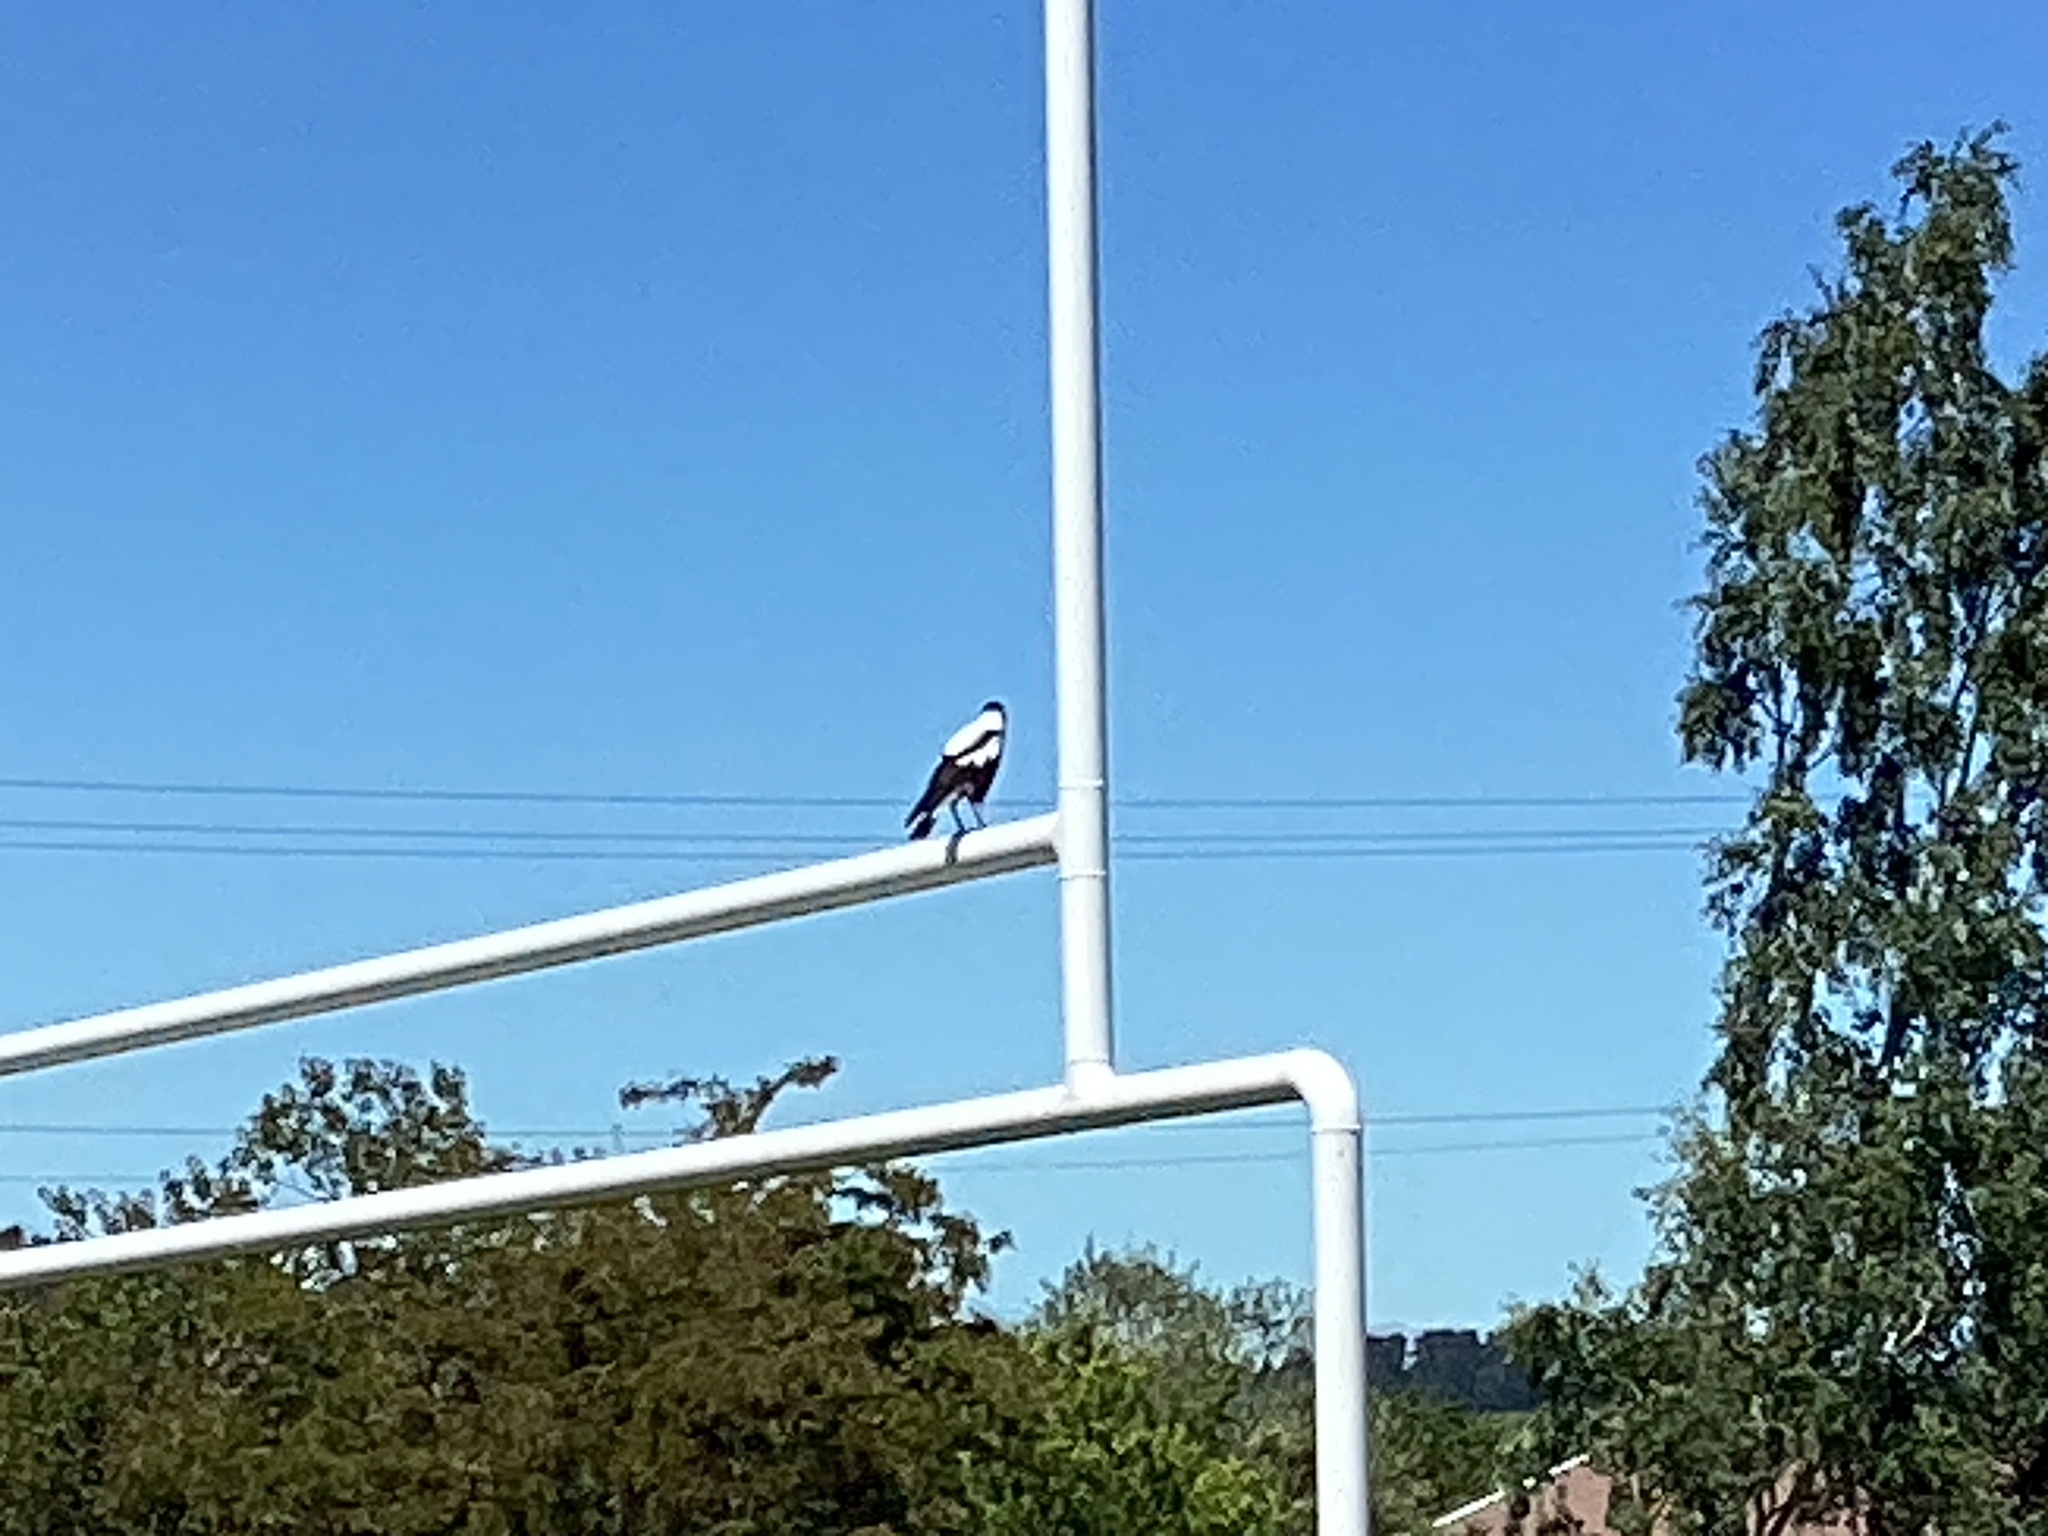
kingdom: Animalia
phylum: Chordata
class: Aves
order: Passeriformes
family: Cracticidae
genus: Gymnorhina
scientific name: Gymnorhina tibicen
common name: Australian magpie
